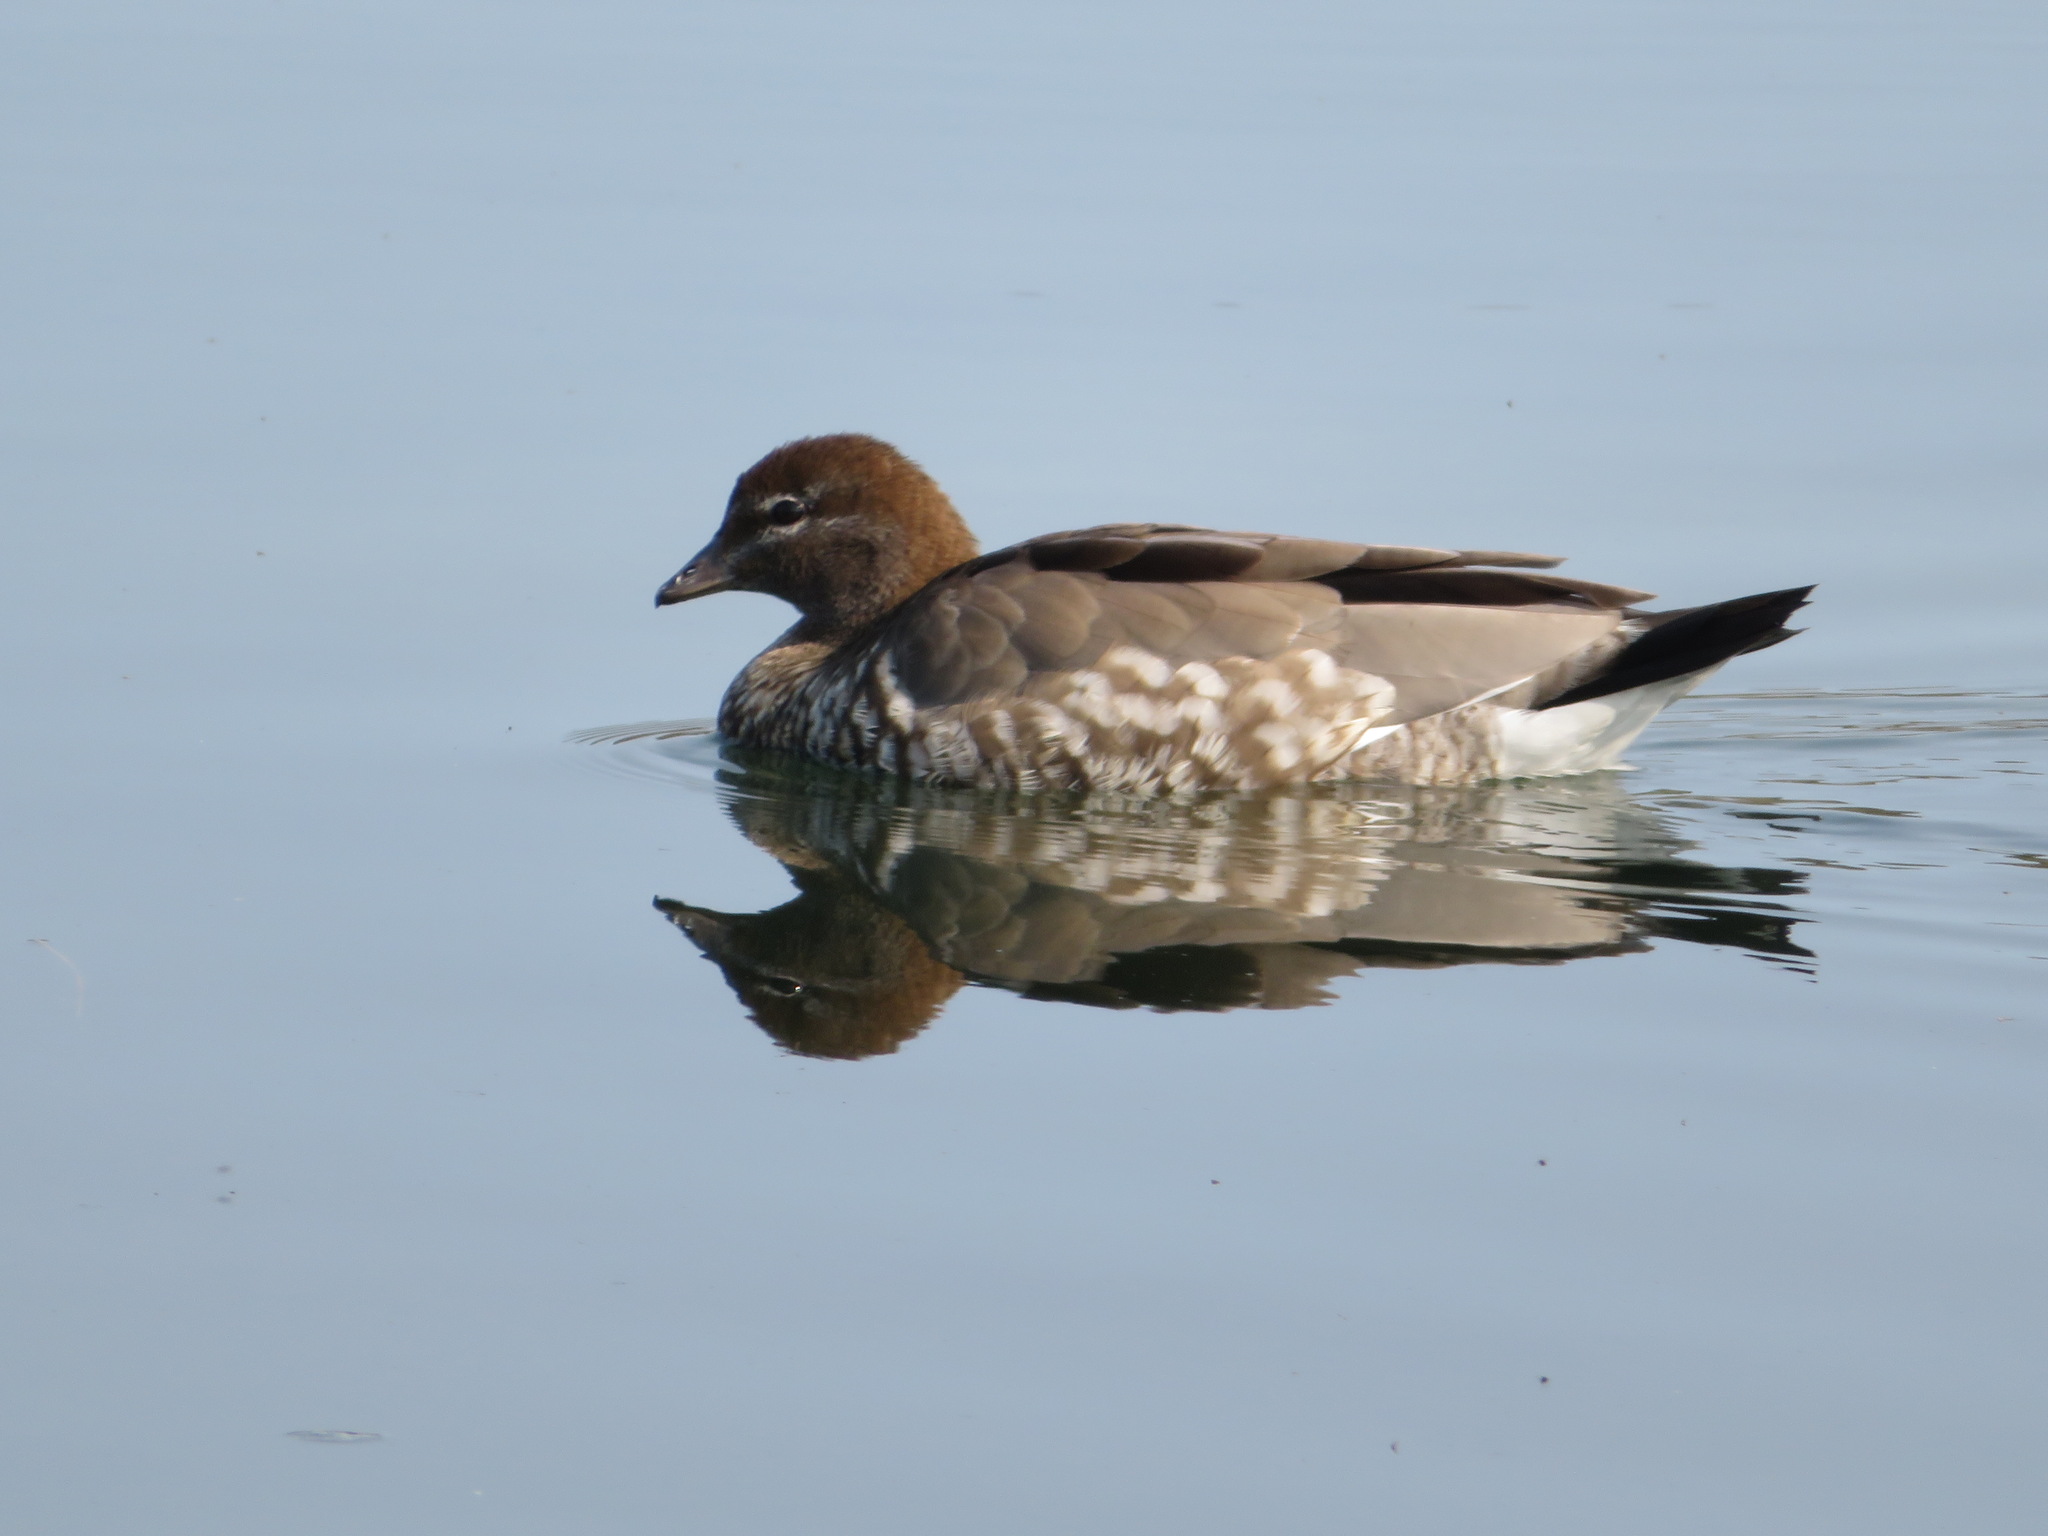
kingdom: Animalia
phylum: Chordata
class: Aves
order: Anseriformes
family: Anatidae
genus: Chenonetta
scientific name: Chenonetta jubata
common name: Maned duck
